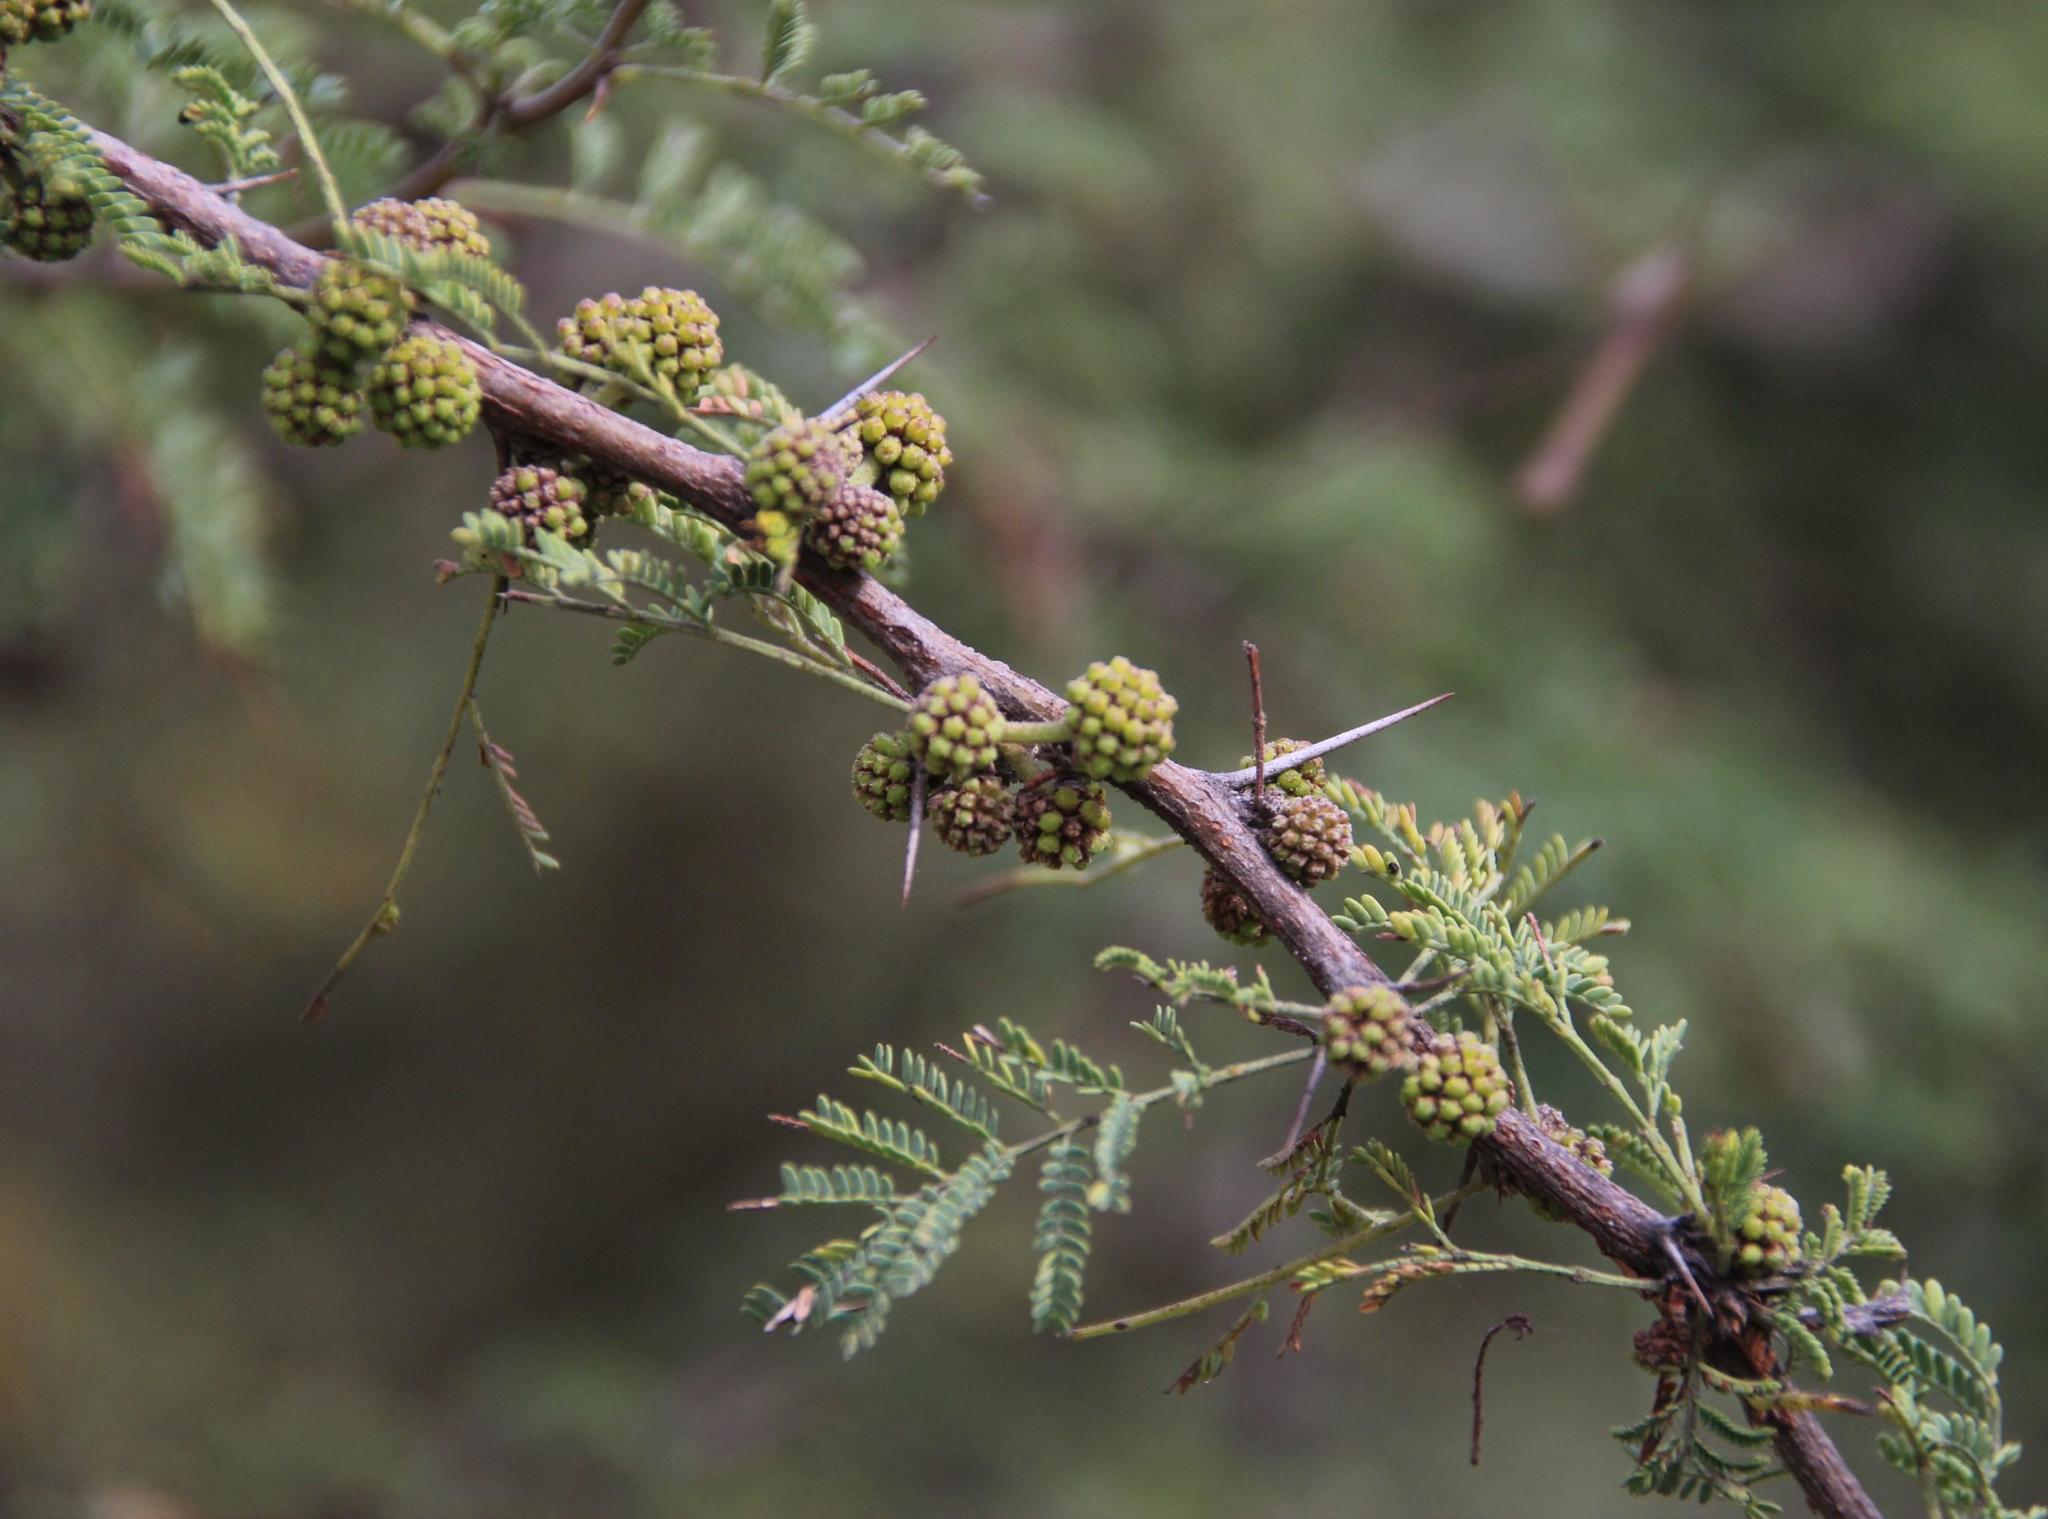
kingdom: Plantae
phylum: Tracheophyta
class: Magnoliopsida
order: Fabales
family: Fabaceae
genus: Vachellia
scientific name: Vachellia caven
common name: Roman cassie
